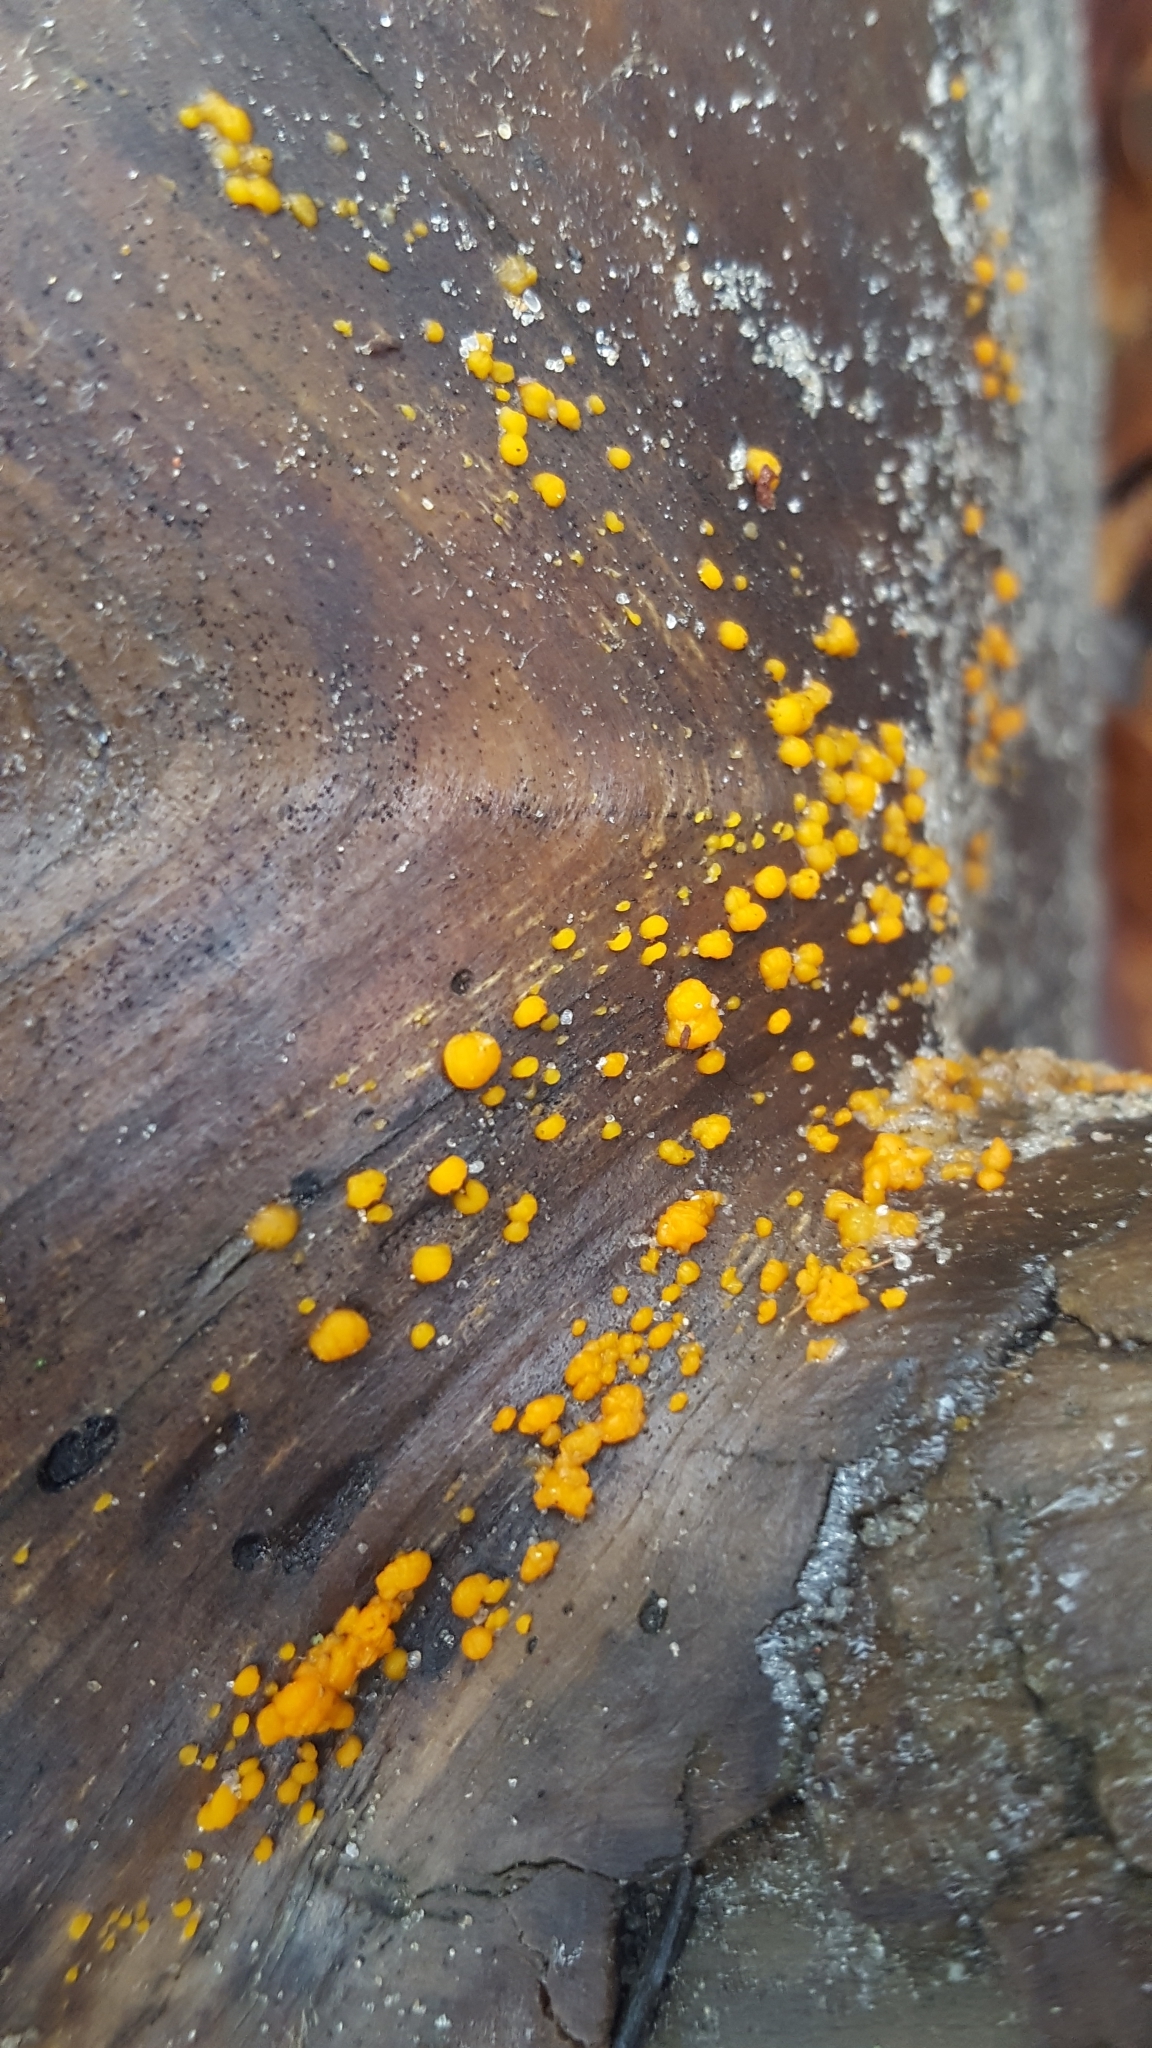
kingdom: Fungi
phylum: Basidiomycota
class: Dacrymycetes
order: Dacrymycetales
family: Dacrymycetaceae
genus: Dacrymyces
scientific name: Dacrymyces stillatus
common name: Common jelly spot
